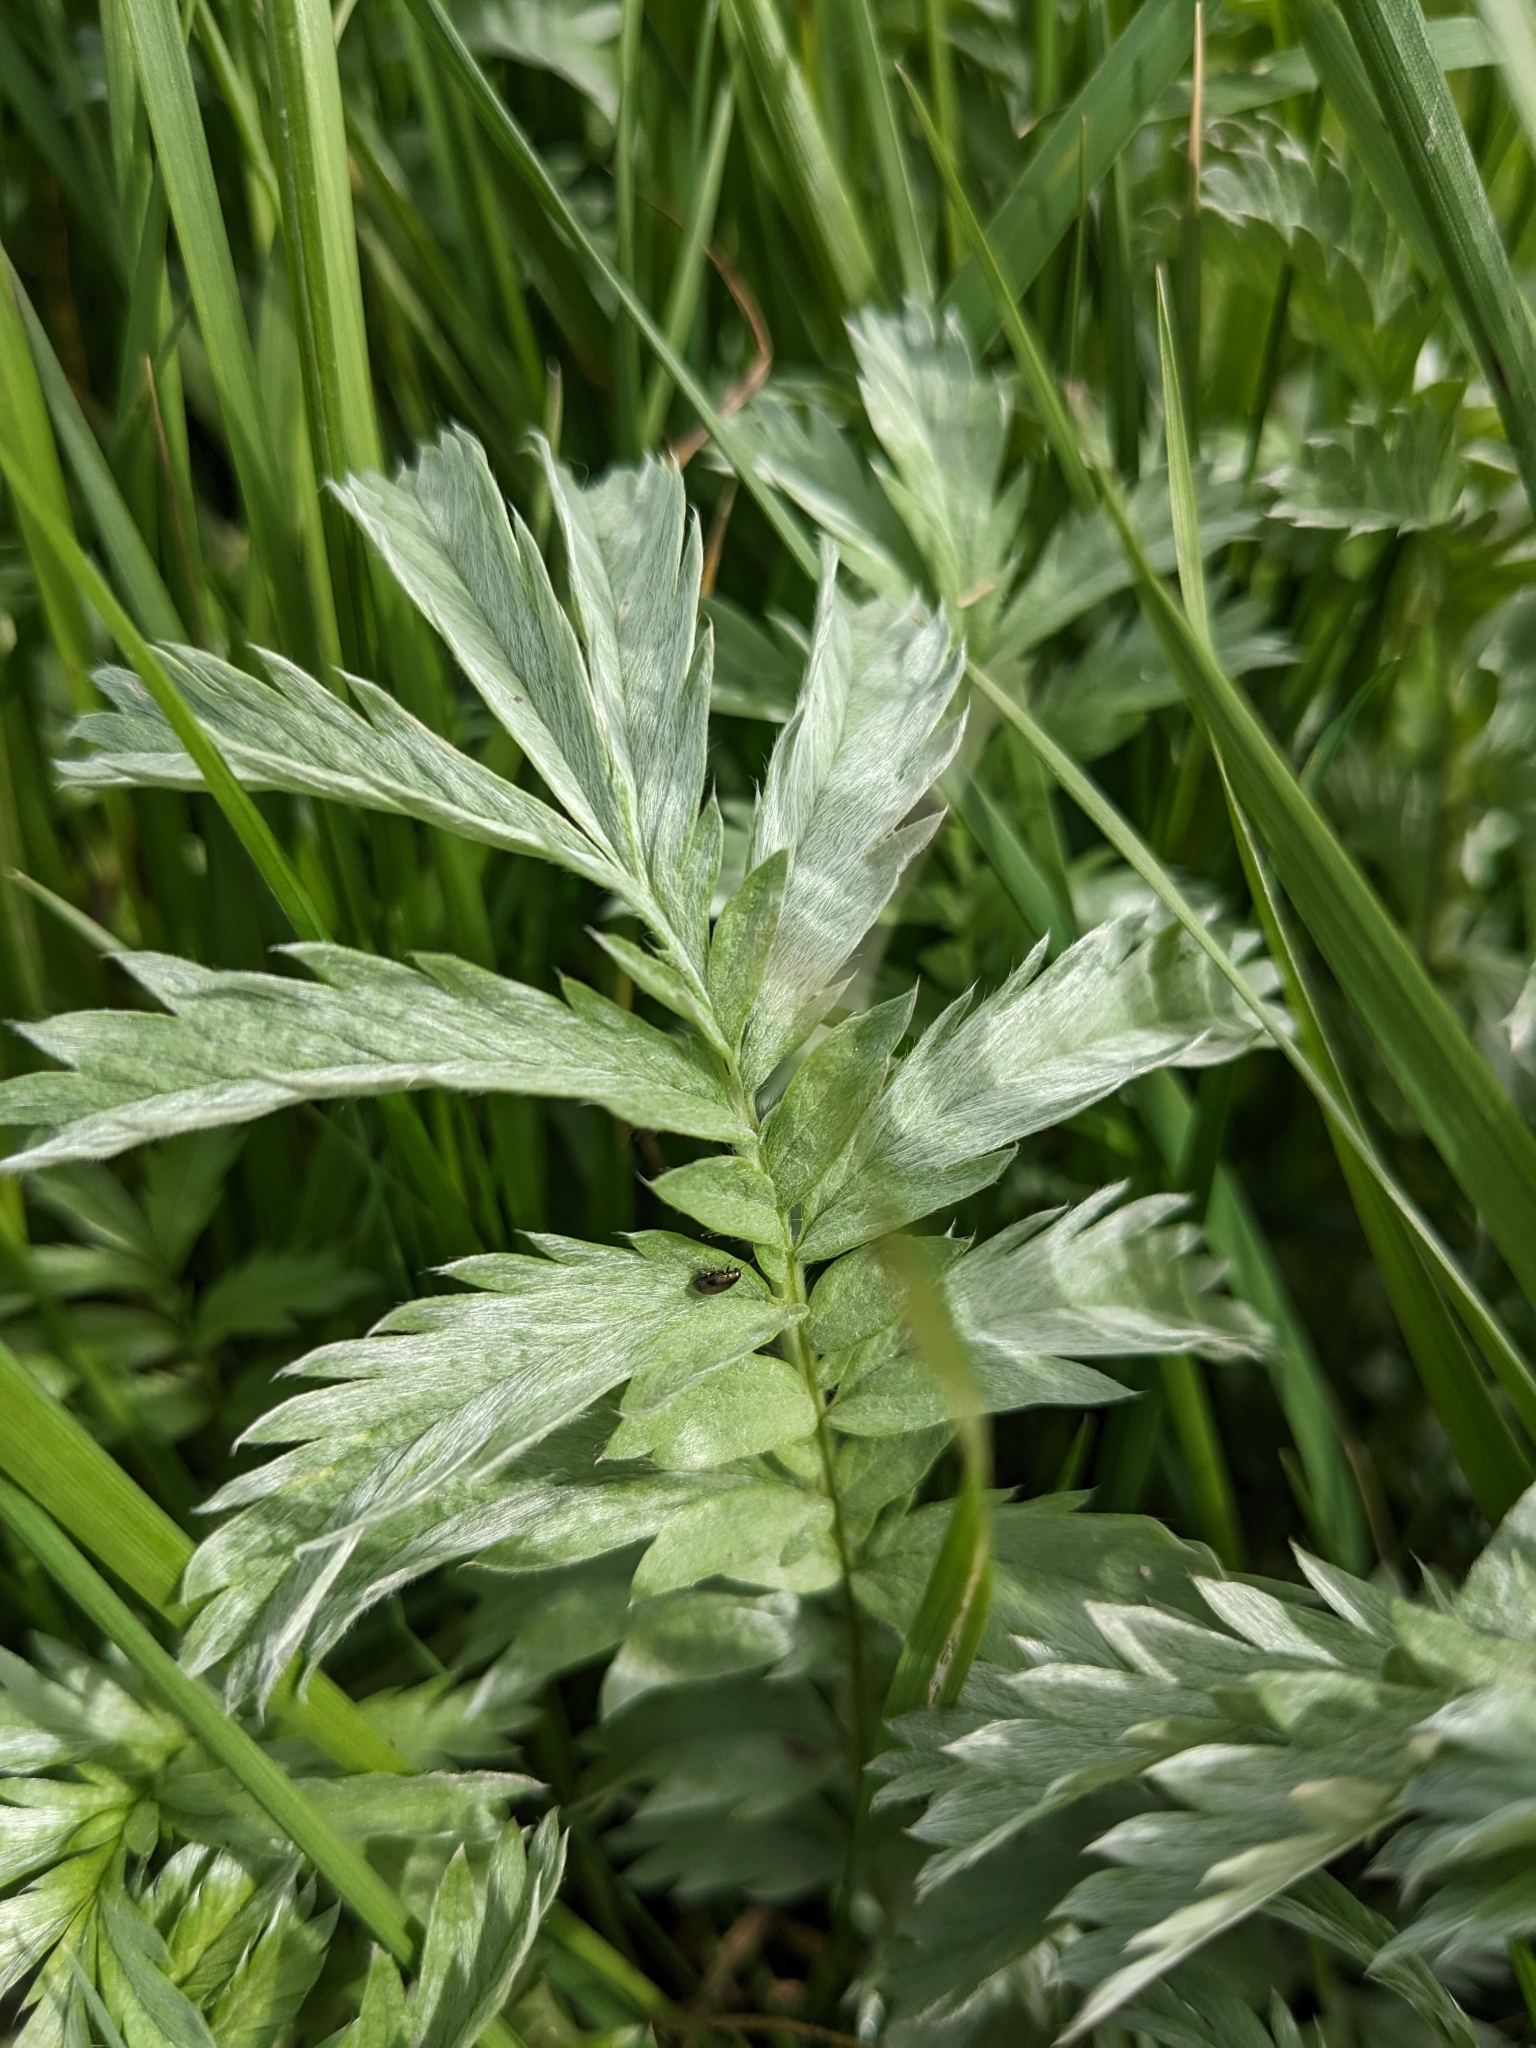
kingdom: Plantae
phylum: Tracheophyta
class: Magnoliopsida
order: Rosales
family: Rosaceae
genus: Argentina
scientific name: Argentina anserina
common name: Common silverweed
